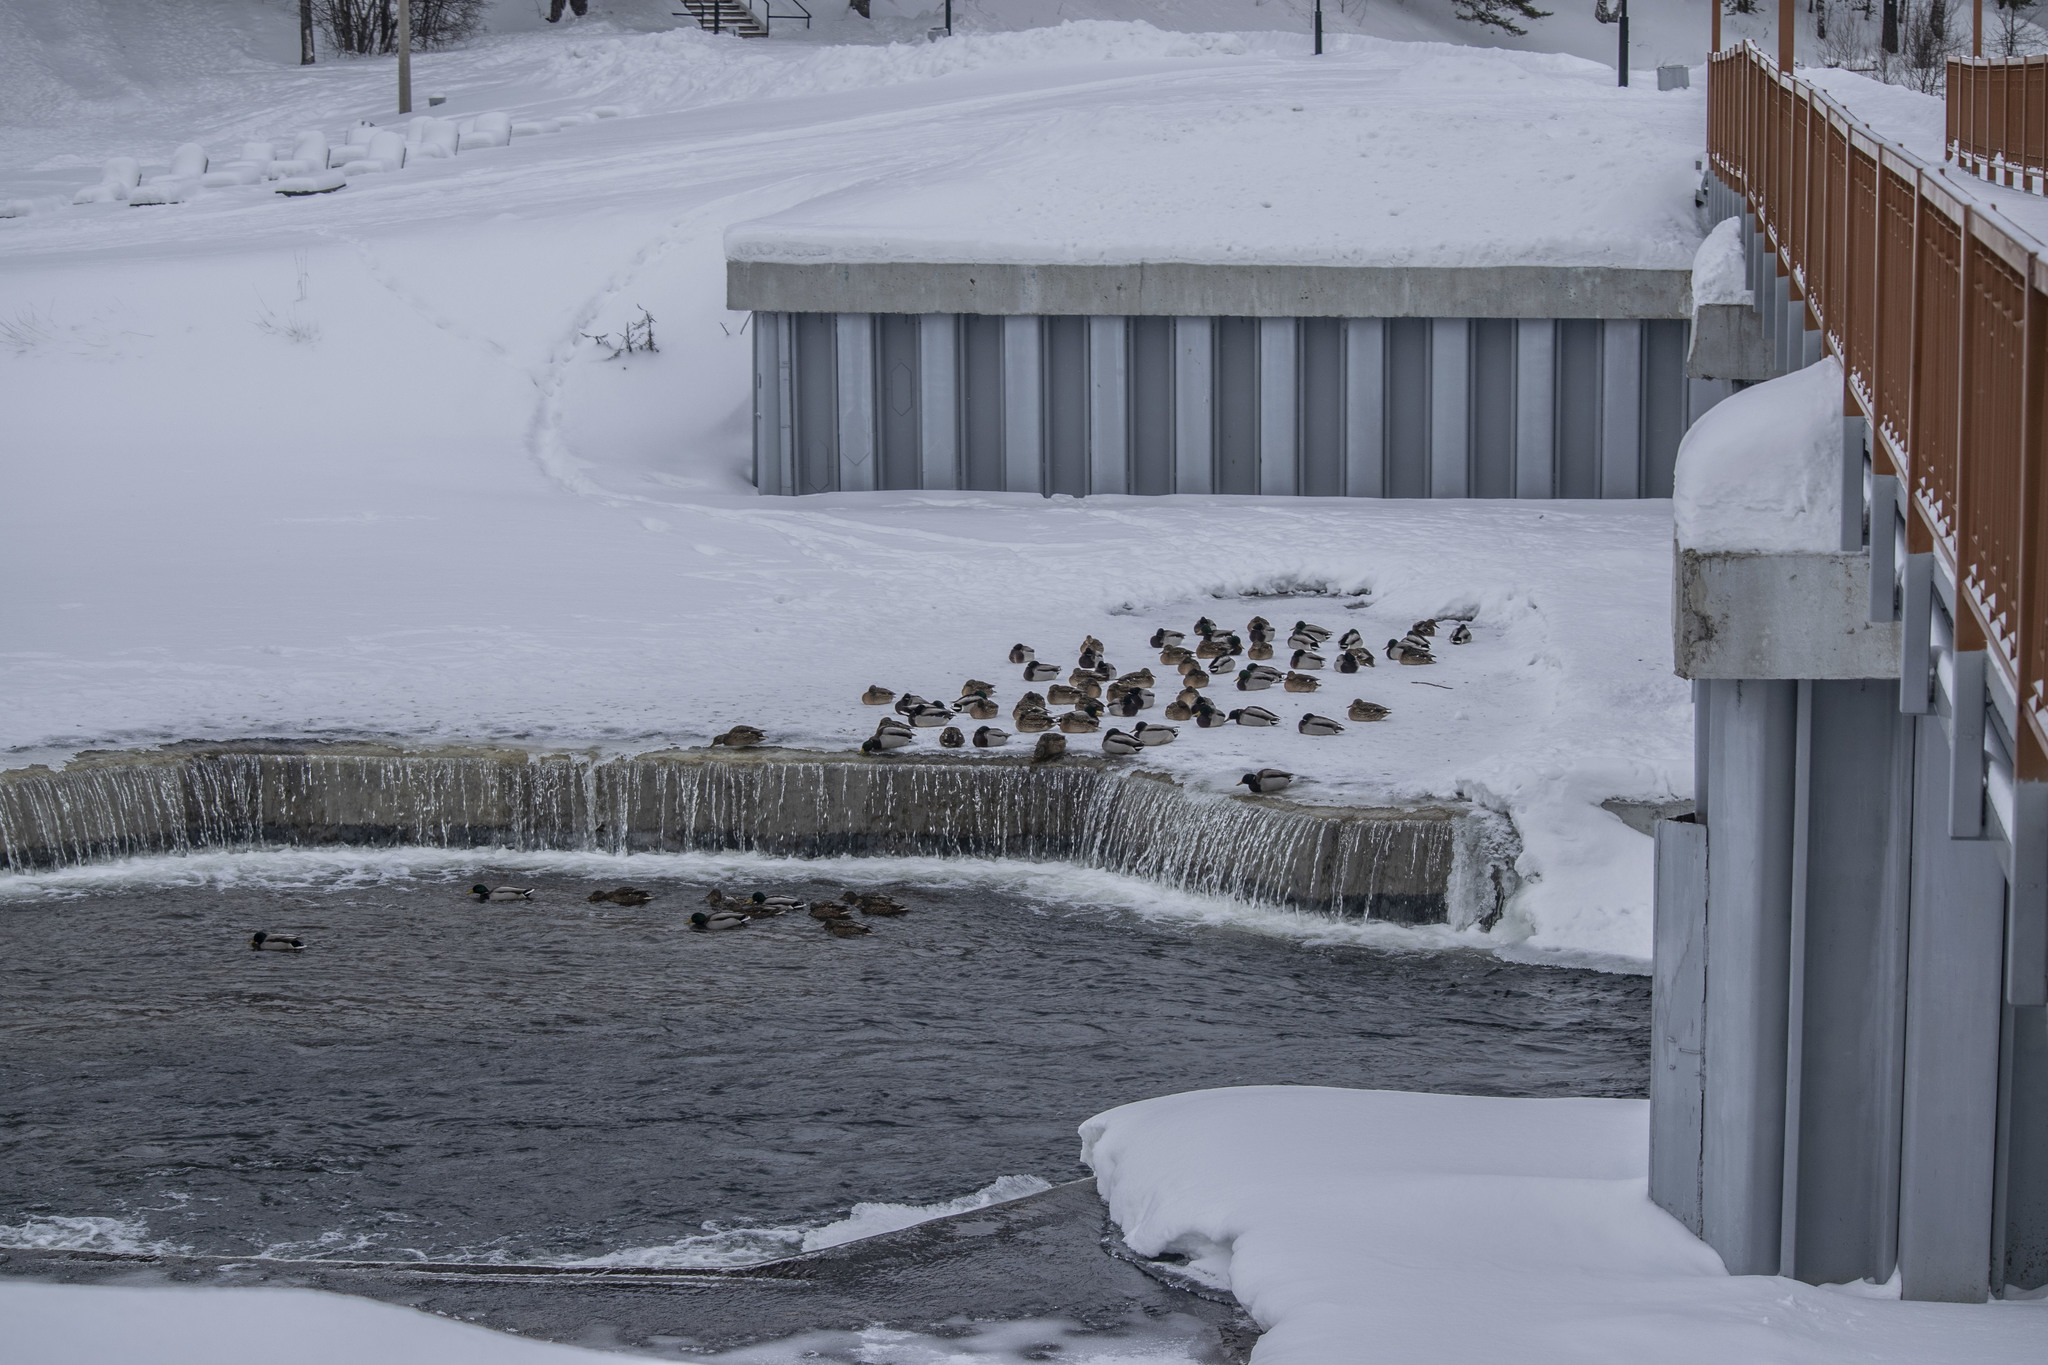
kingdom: Animalia
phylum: Chordata
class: Aves
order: Anseriformes
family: Anatidae
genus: Anas
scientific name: Anas platyrhynchos
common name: Mallard
